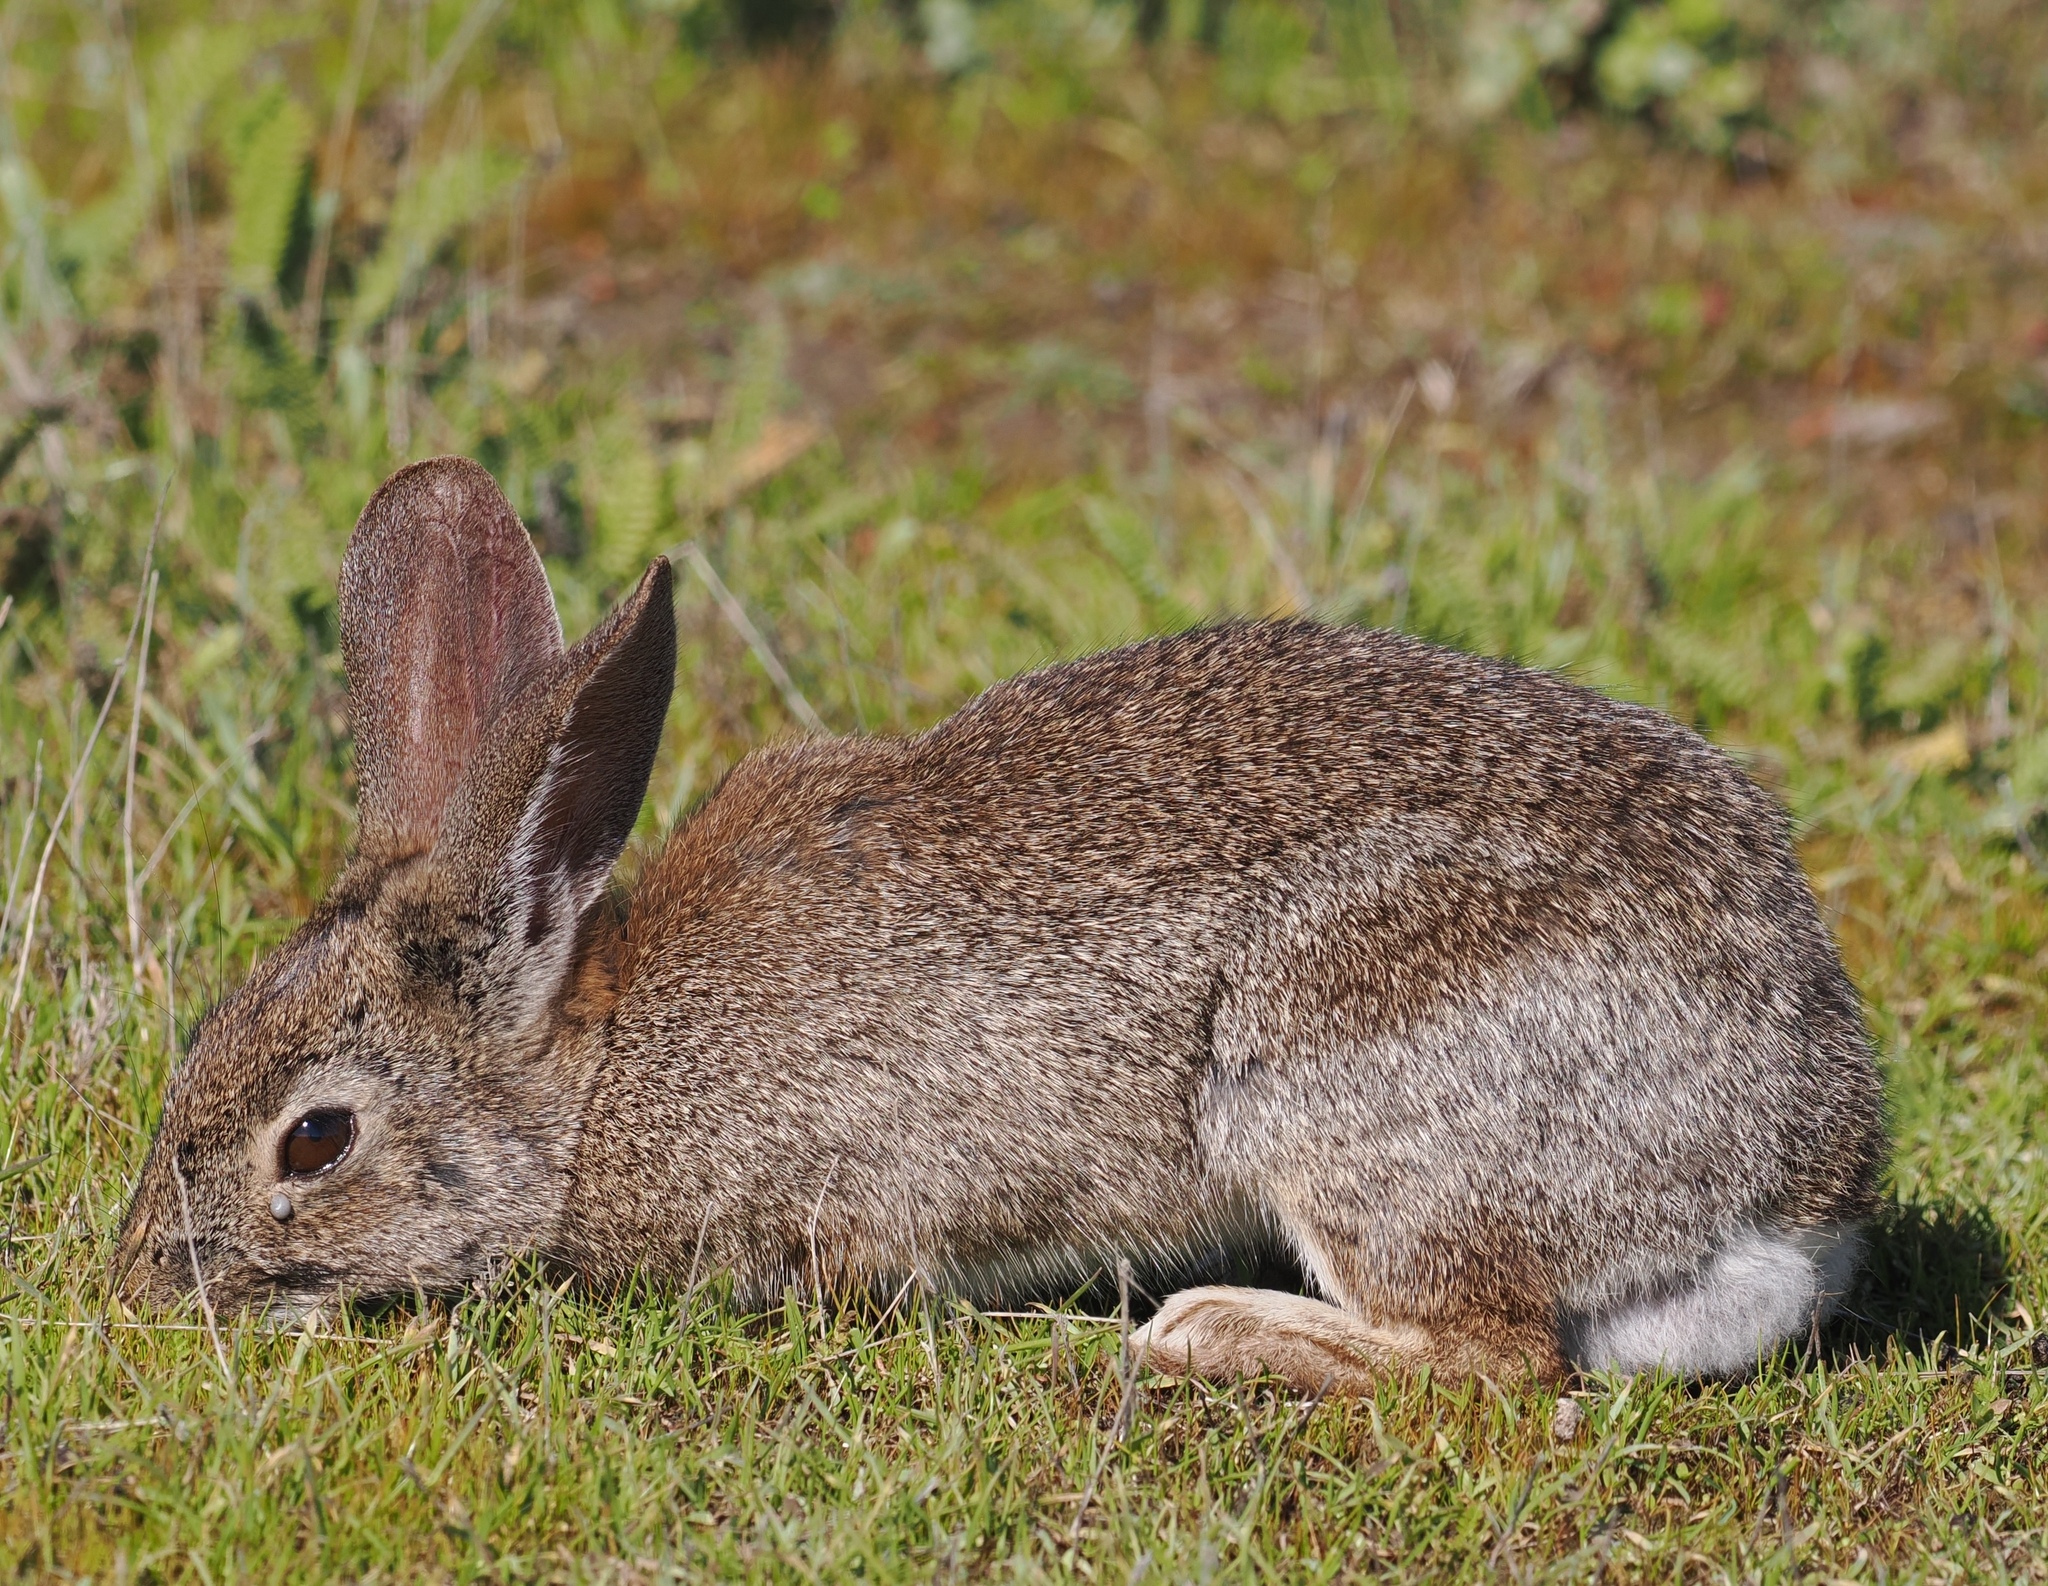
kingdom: Animalia
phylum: Chordata
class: Mammalia
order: Lagomorpha
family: Leporidae
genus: Sylvilagus
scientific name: Sylvilagus bachmani
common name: Brush rabbit
